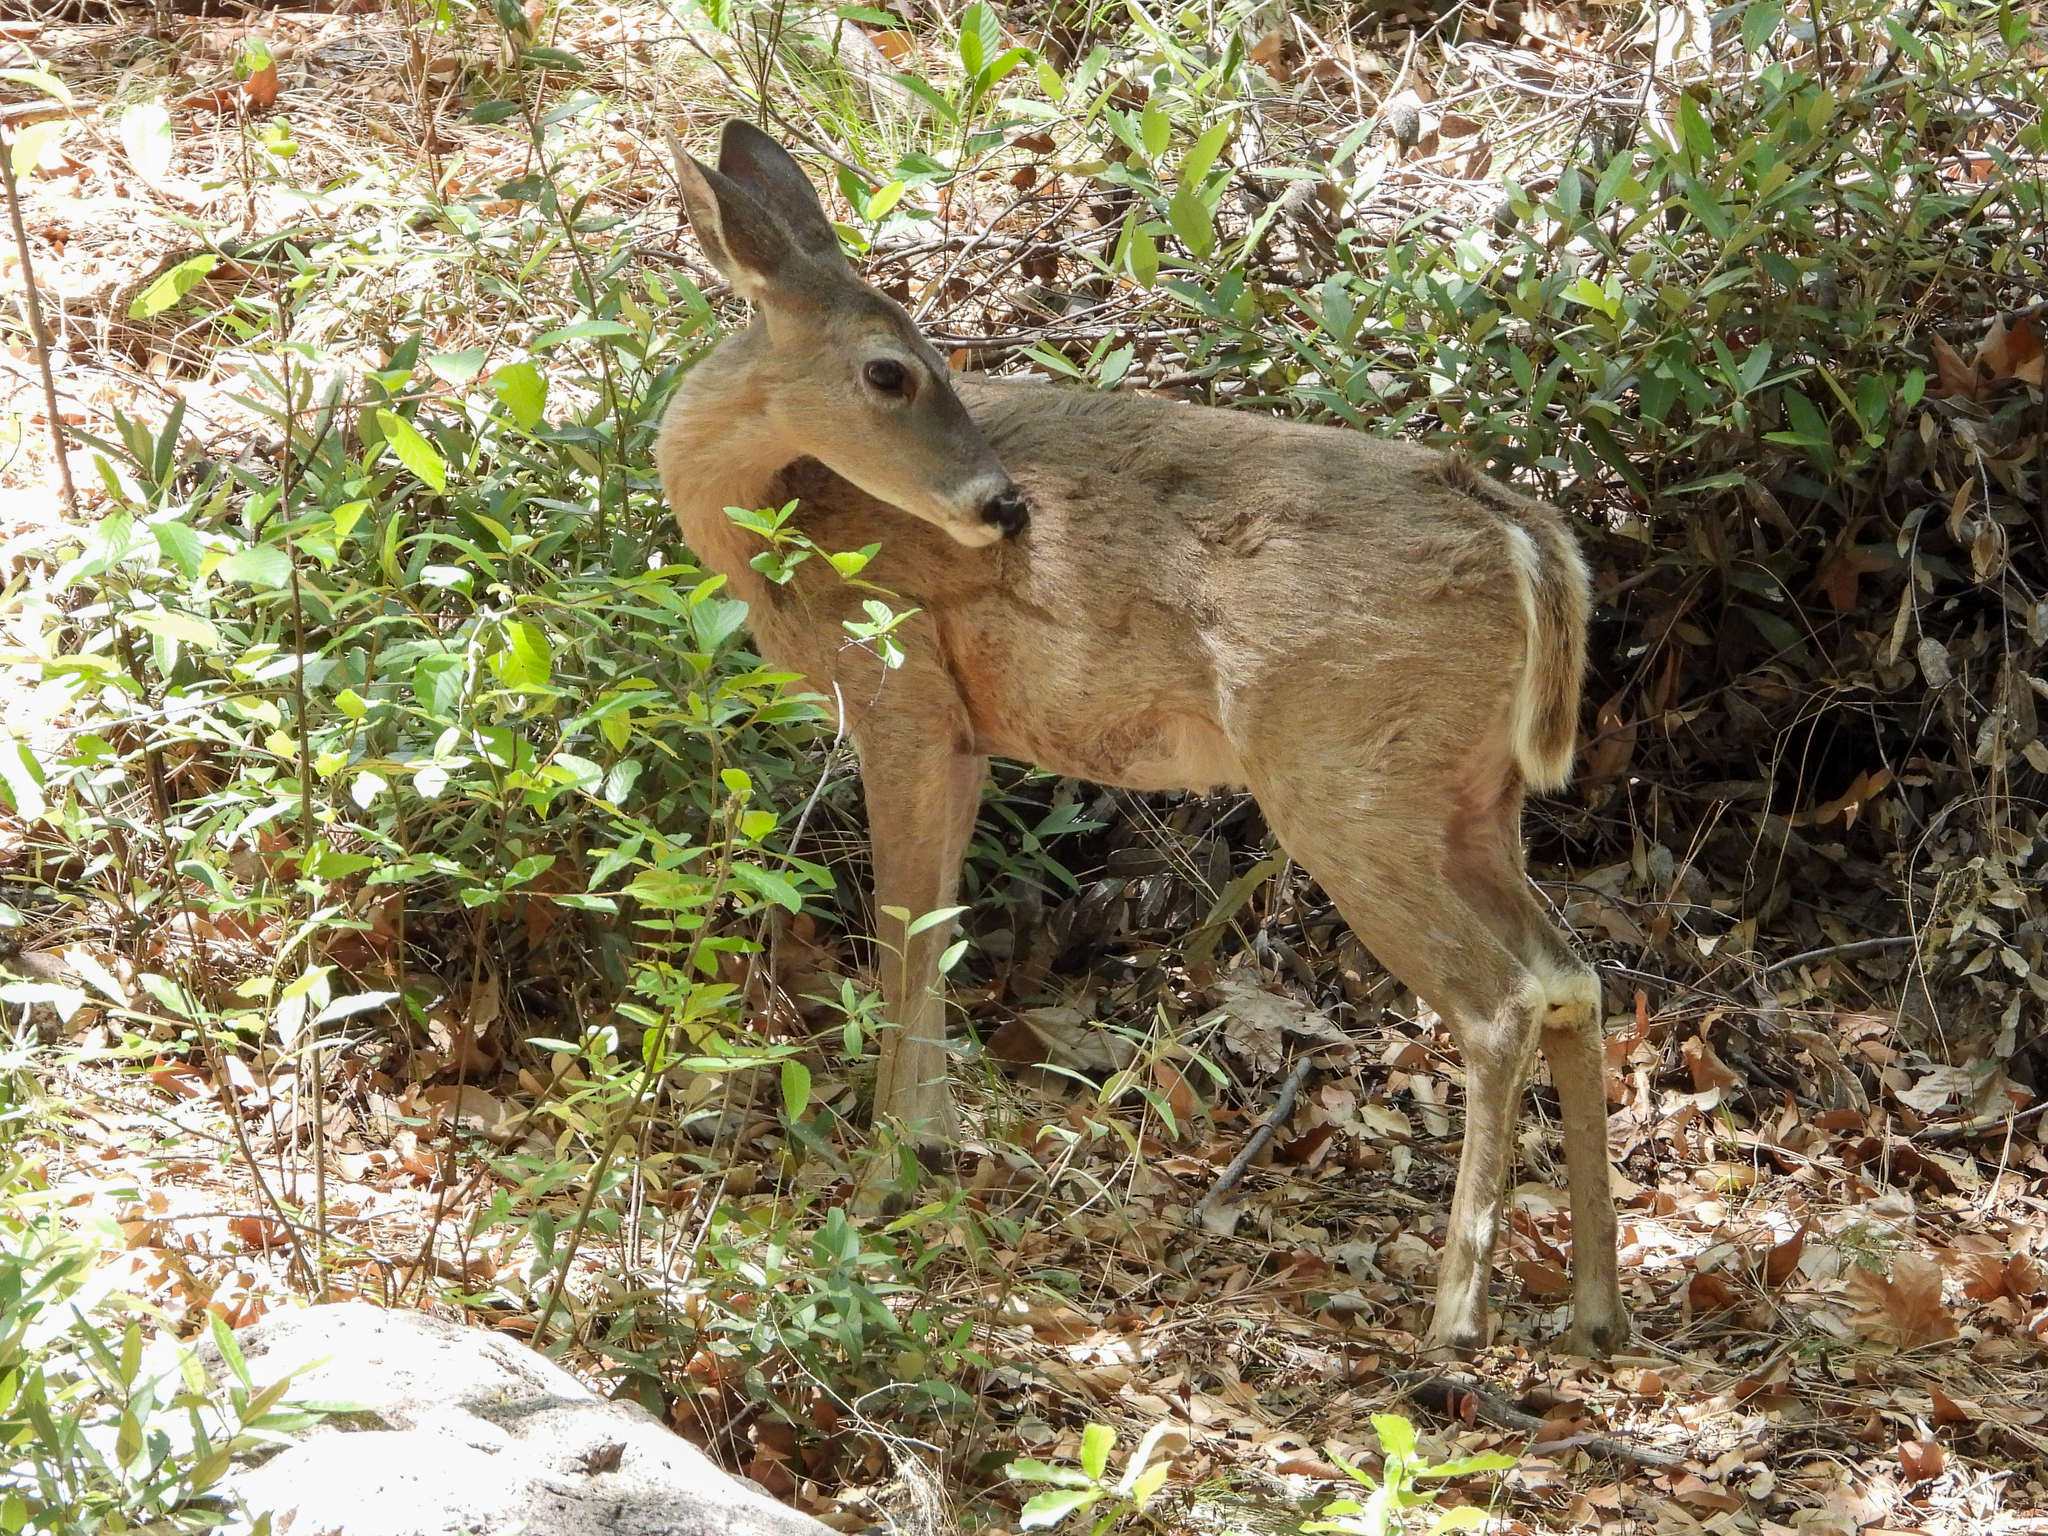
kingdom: Animalia
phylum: Chordata
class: Mammalia
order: Artiodactyla
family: Cervidae
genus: Odocoileus
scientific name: Odocoileus virginianus
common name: White-tailed deer
